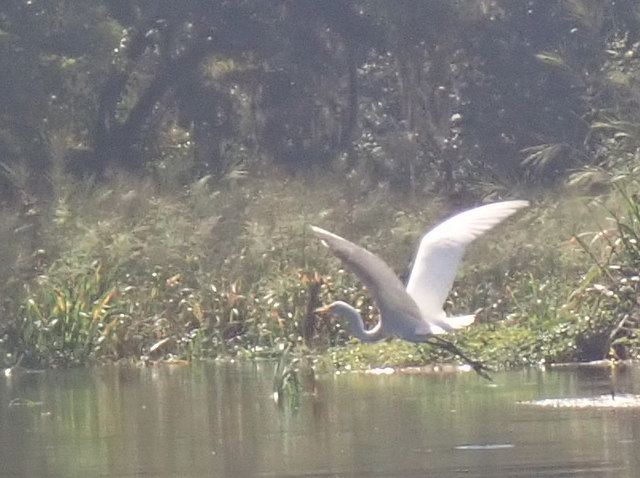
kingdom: Animalia
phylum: Chordata
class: Aves
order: Pelecaniformes
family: Ardeidae
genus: Ardea
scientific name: Ardea alba
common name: Great egret
